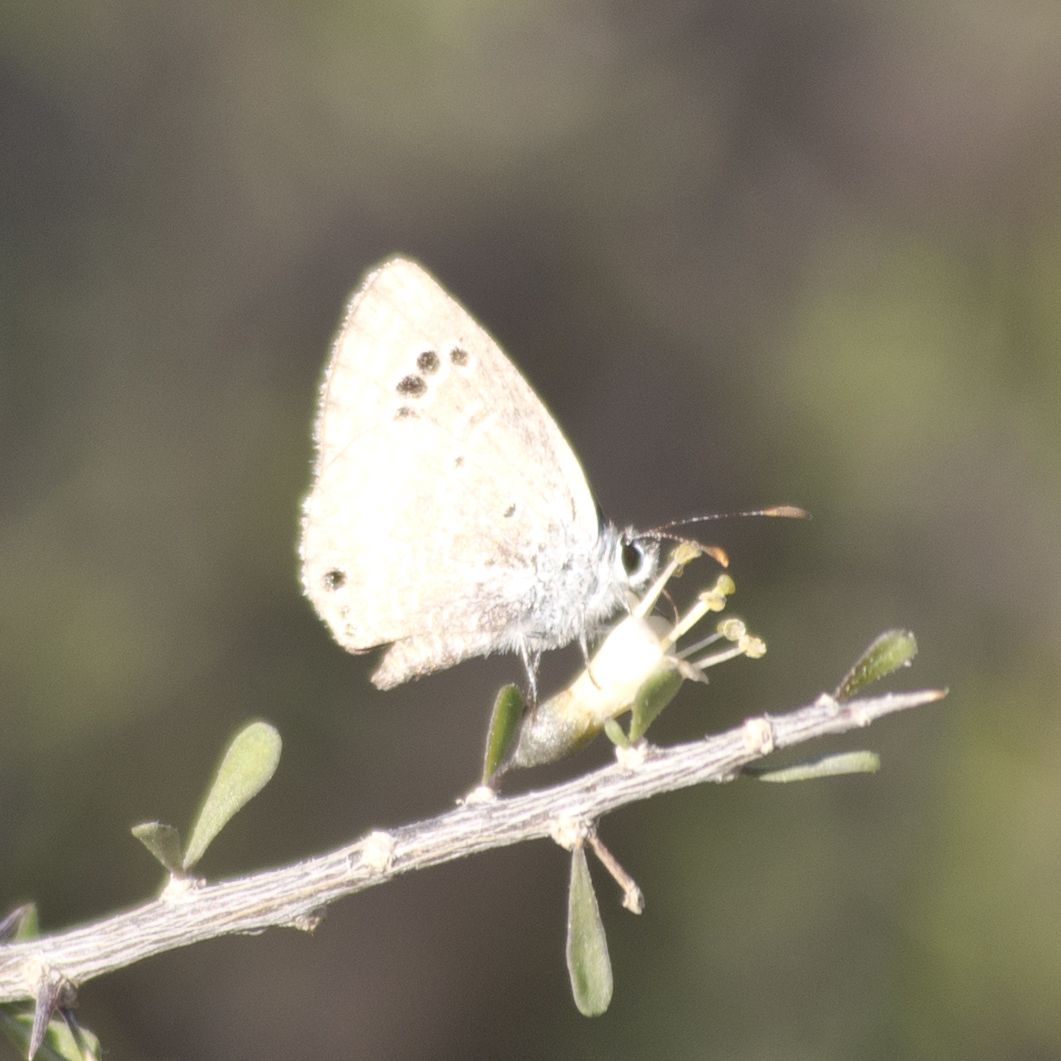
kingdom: Animalia
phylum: Arthropoda
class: Insecta
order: Lepidoptera
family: Lycaenidae
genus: Echinargus
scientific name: Echinargus isola
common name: Reakirt's blue
